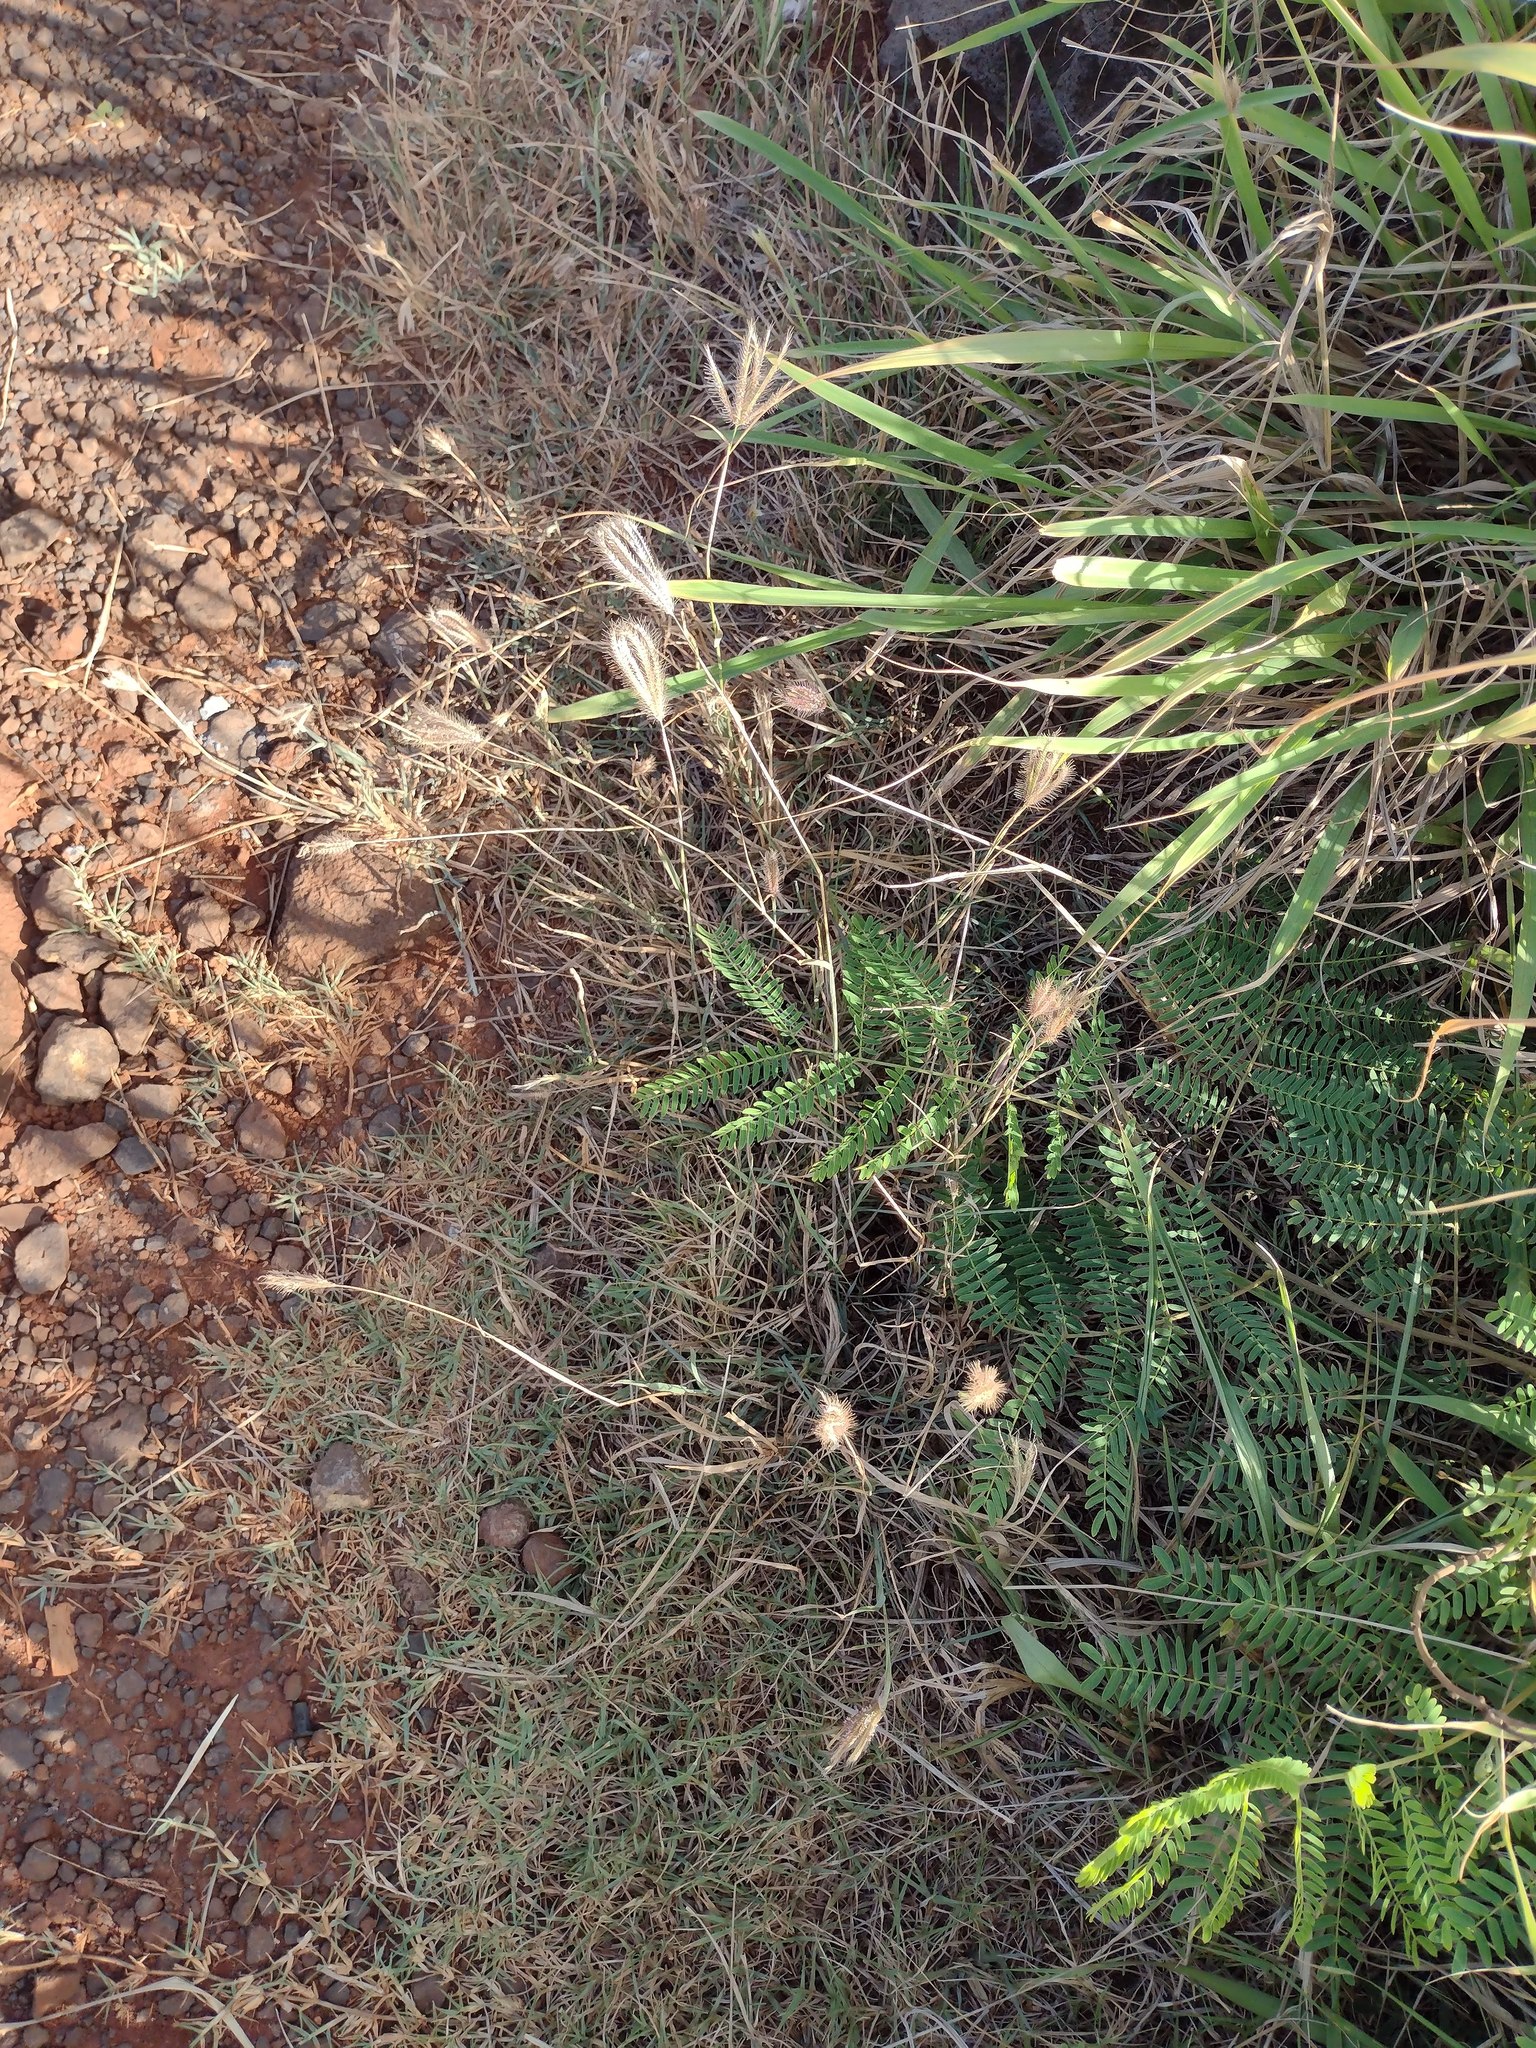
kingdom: Plantae
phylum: Tracheophyta
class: Liliopsida
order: Poales
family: Poaceae
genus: Chloris
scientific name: Chloris barbata
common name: Swollen fingergrass
